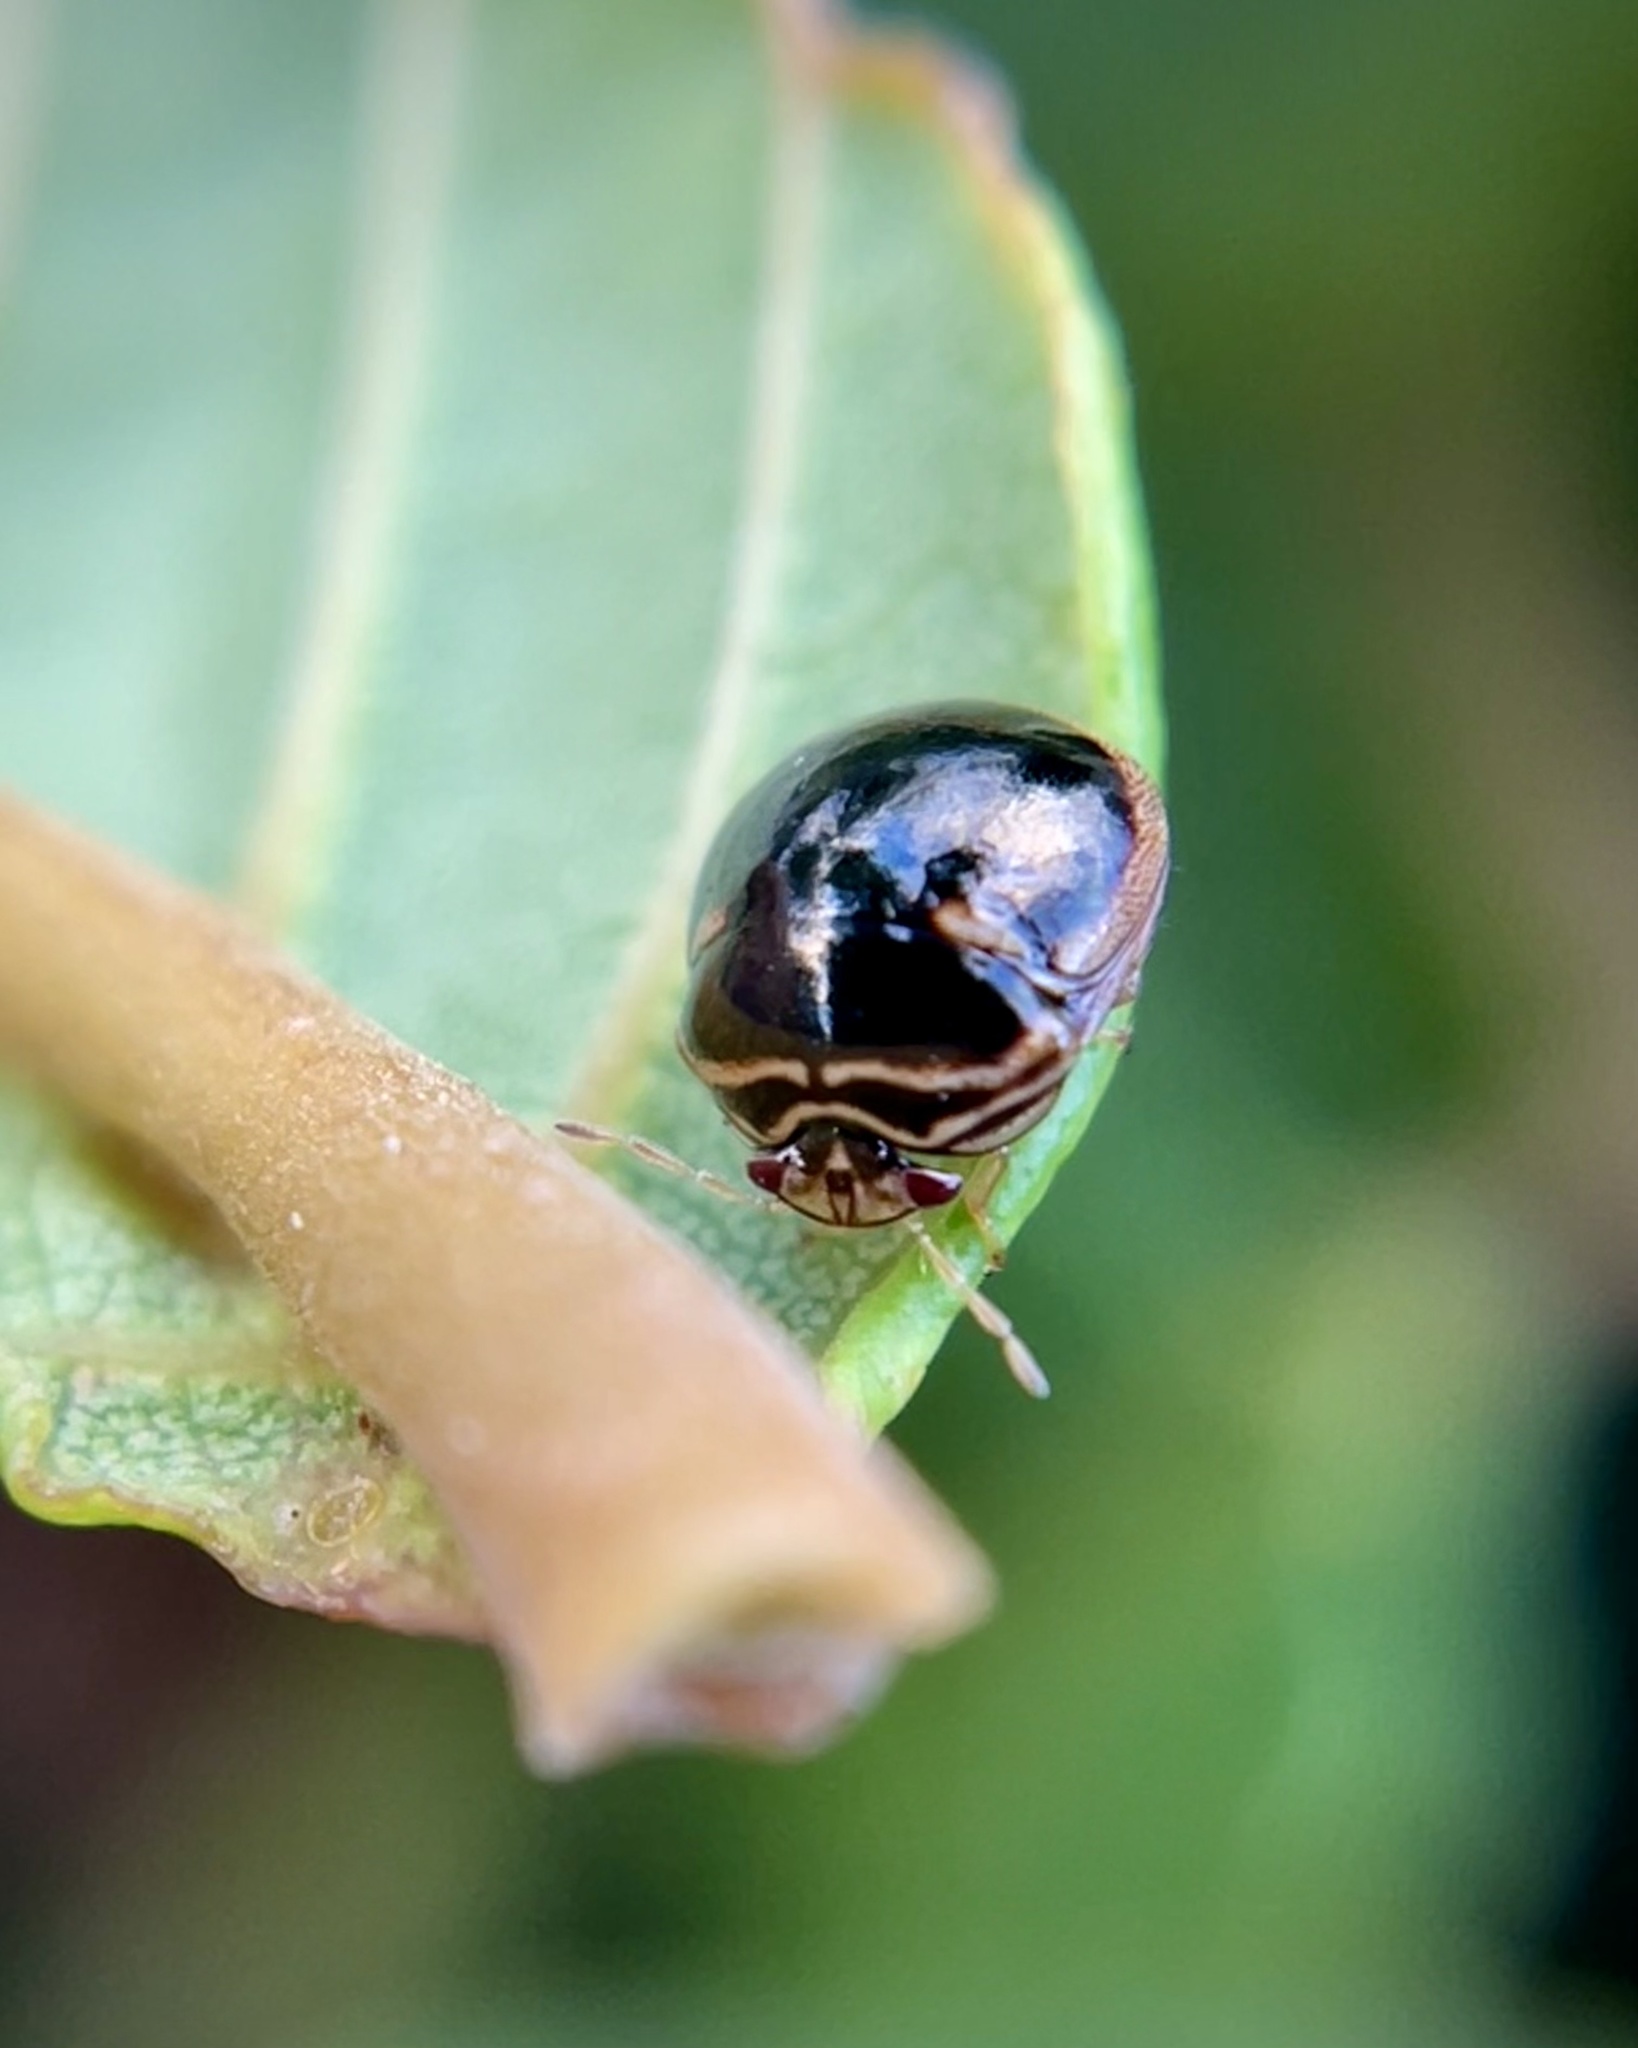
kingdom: Animalia
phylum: Arthropoda
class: Insecta
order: Hemiptera
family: Plataspidae
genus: Coptosoma
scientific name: Coptosoma
